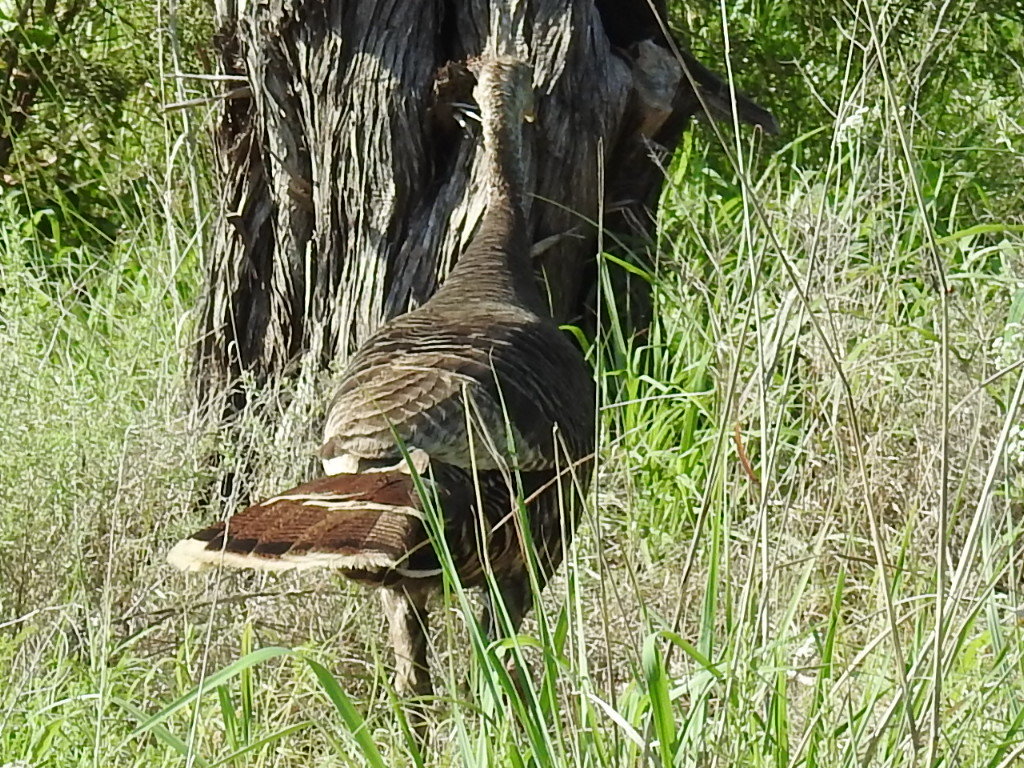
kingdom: Animalia
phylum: Chordata
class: Aves
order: Galliformes
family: Phasianidae
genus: Meleagris
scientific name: Meleagris gallopavo
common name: Wild turkey
